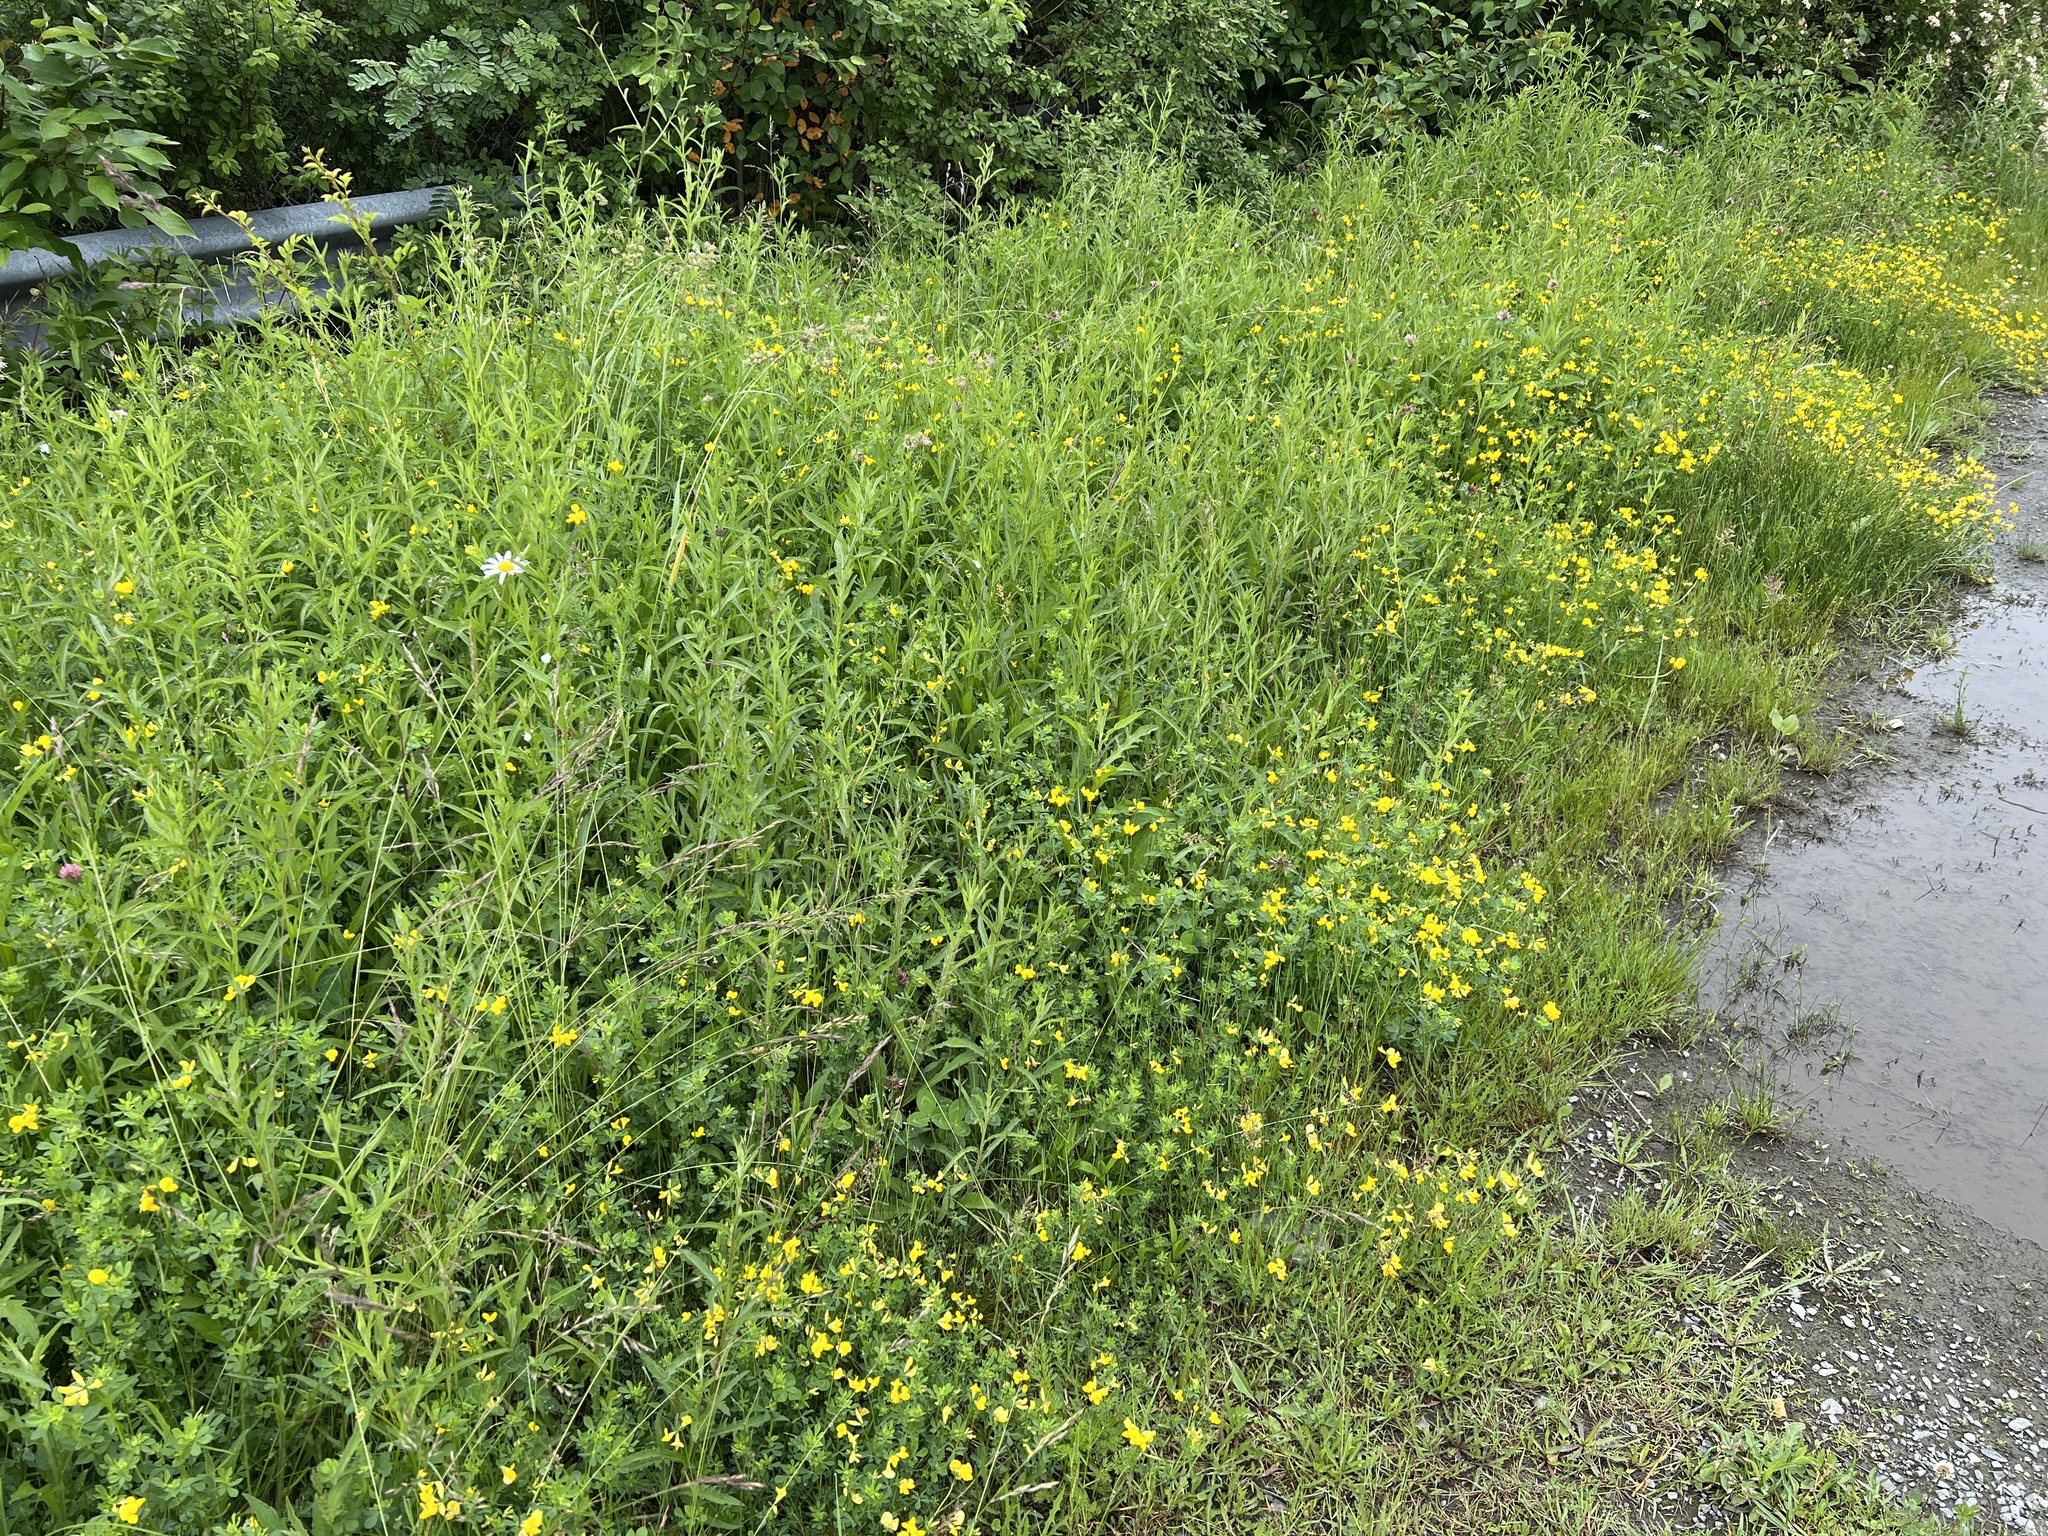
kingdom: Plantae
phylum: Tracheophyta
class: Magnoliopsida
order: Fabales
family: Fabaceae
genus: Lotus
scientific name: Lotus corniculatus
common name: Common bird's-foot-trefoil
